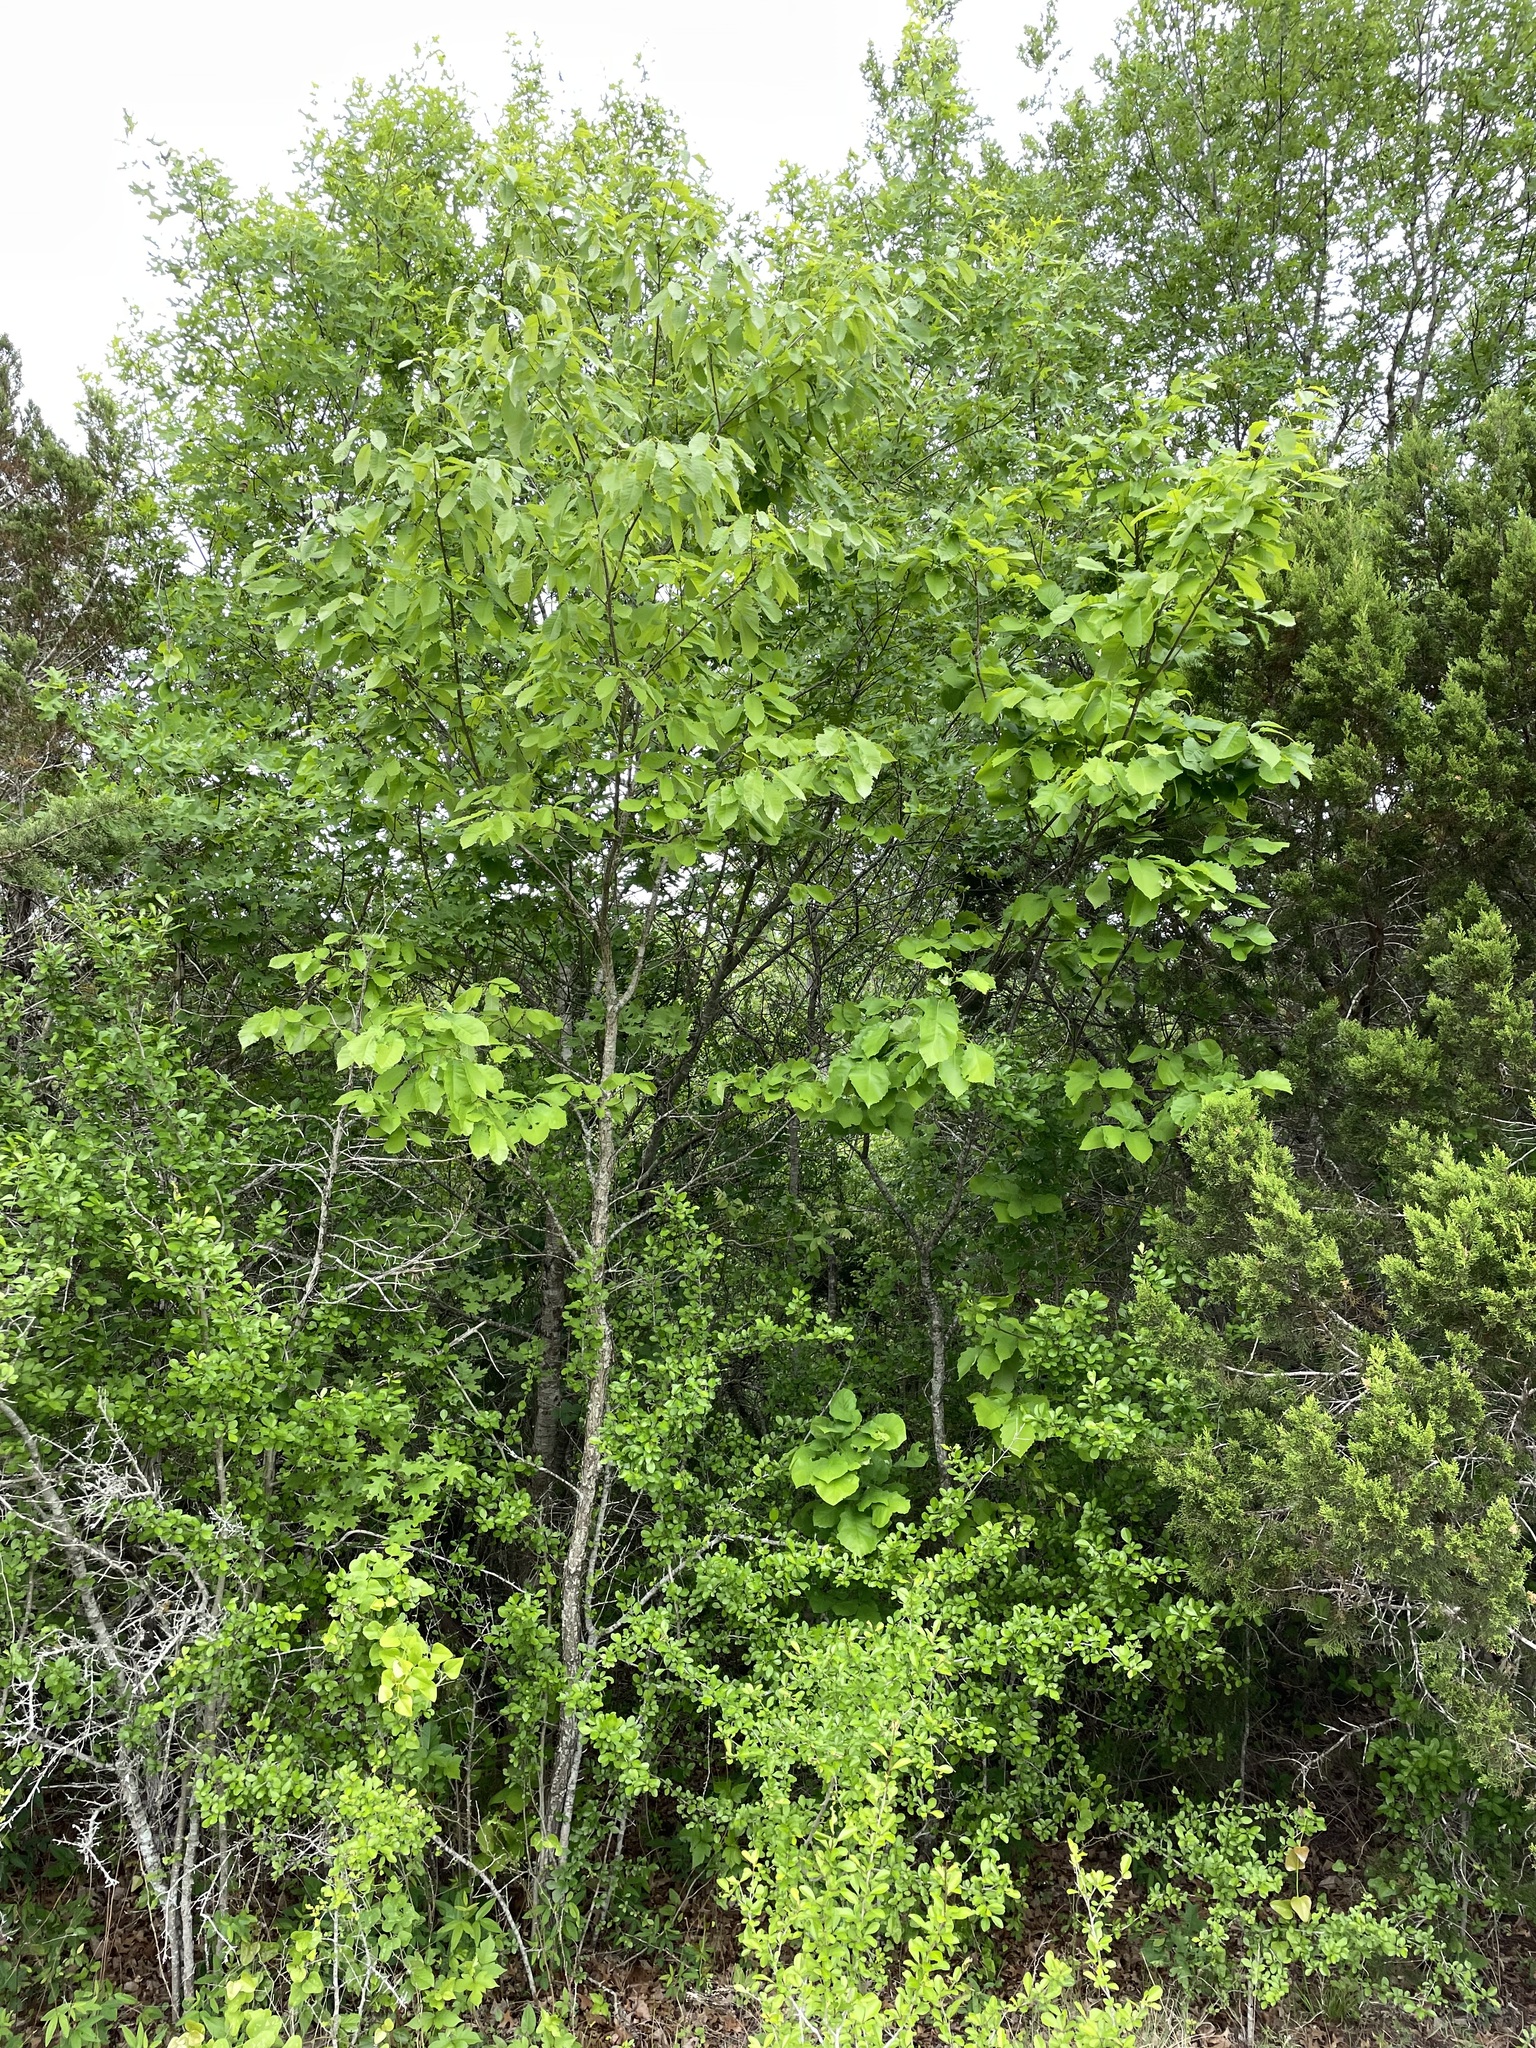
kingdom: Plantae
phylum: Tracheophyta
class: Magnoliopsida
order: Fagales
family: Fagaceae
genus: Quercus
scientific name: Quercus muehlenbergii
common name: Chinkapin oak
